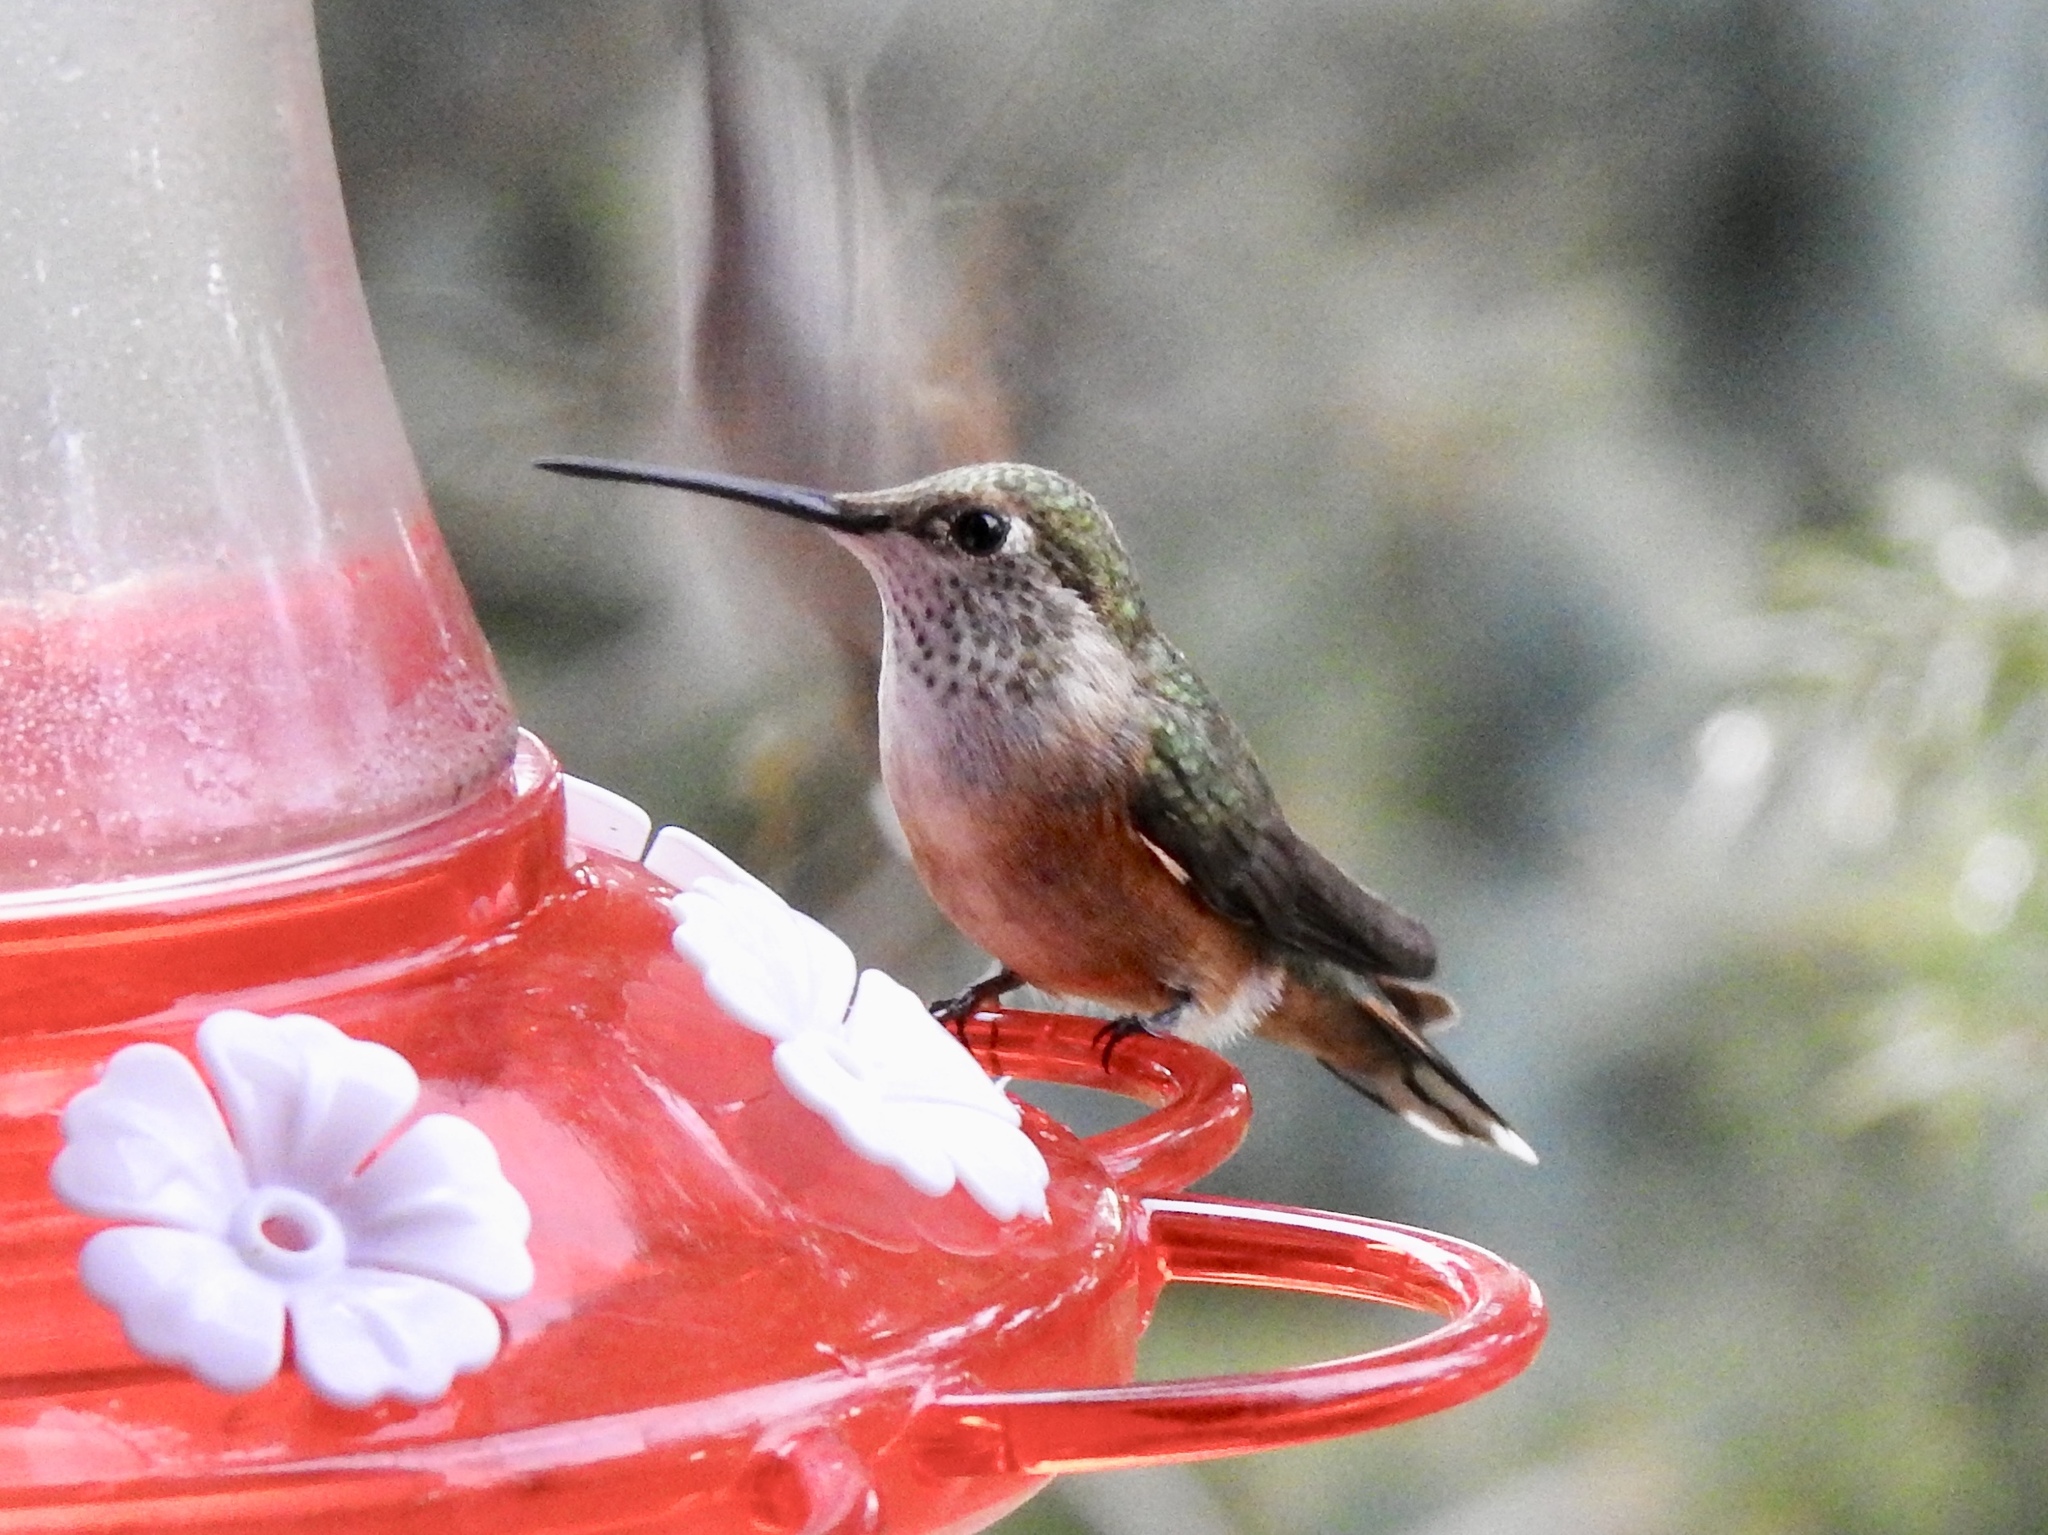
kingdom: Animalia
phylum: Chordata
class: Aves
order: Apodiformes
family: Trochilidae
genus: Selasphorus
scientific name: Selasphorus platycercus
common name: Broad-tailed hummingbird
